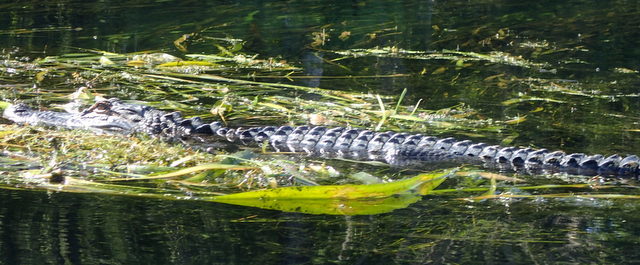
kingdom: Animalia
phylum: Chordata
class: Crocodylia
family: Alligatoridae
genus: Alligator
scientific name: Alligator mississippiensis
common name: American alligator
